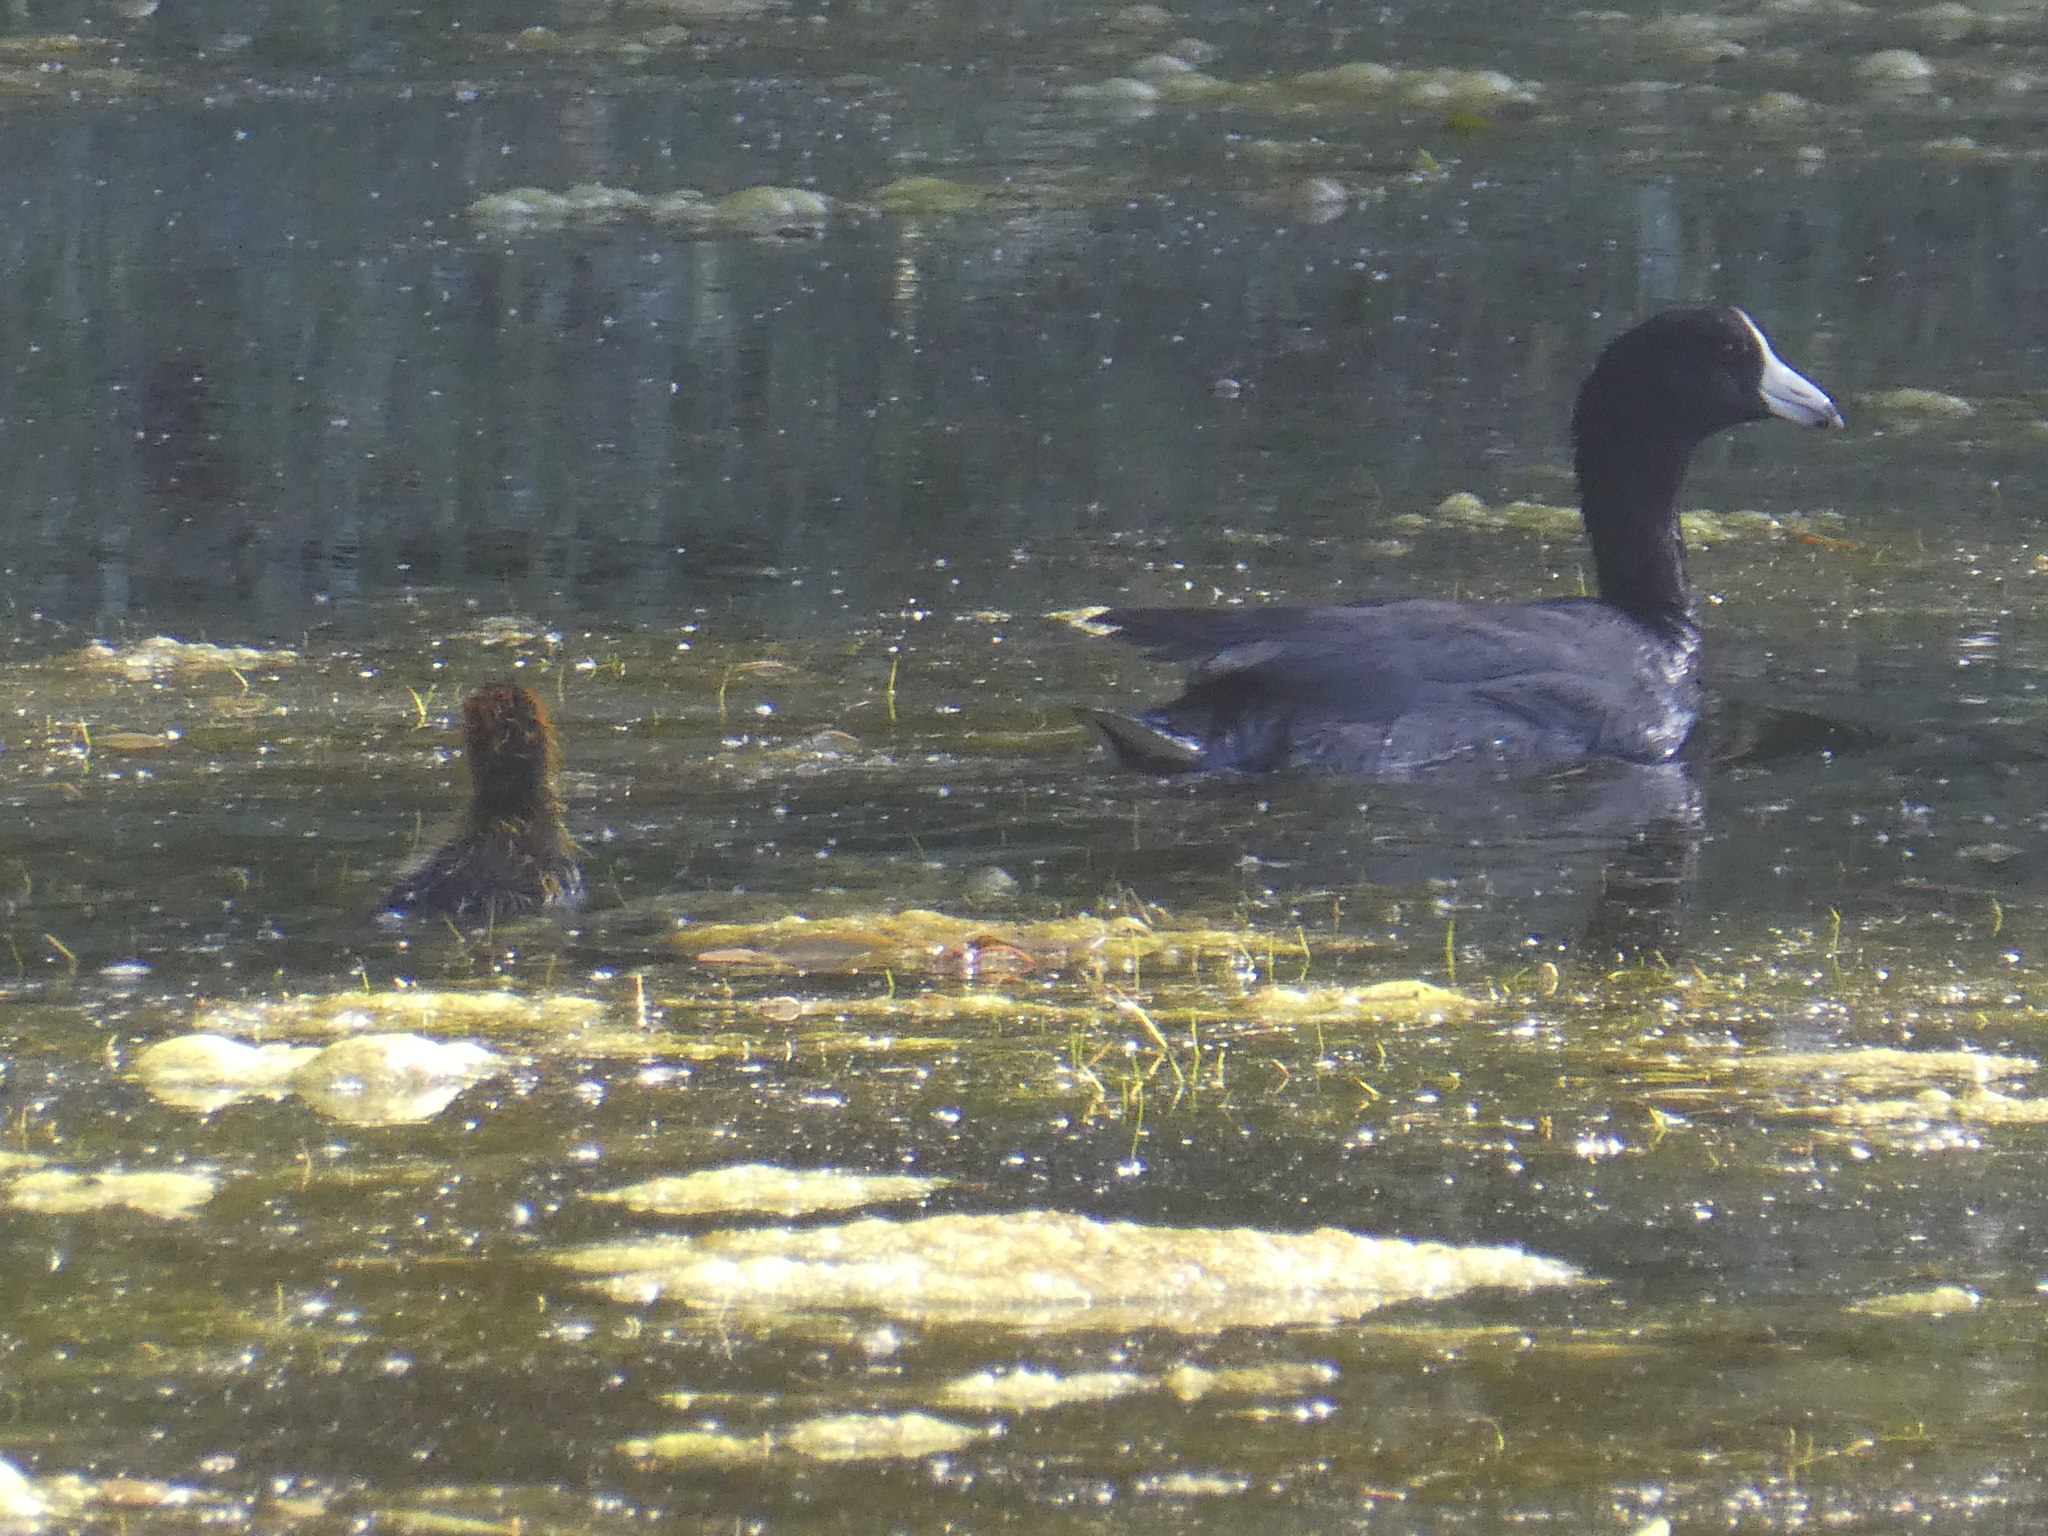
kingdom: Animalia
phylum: Chordata
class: Aves
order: Gruiformes
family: Rallidae
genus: Fulica
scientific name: Fulica americana
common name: American coot
